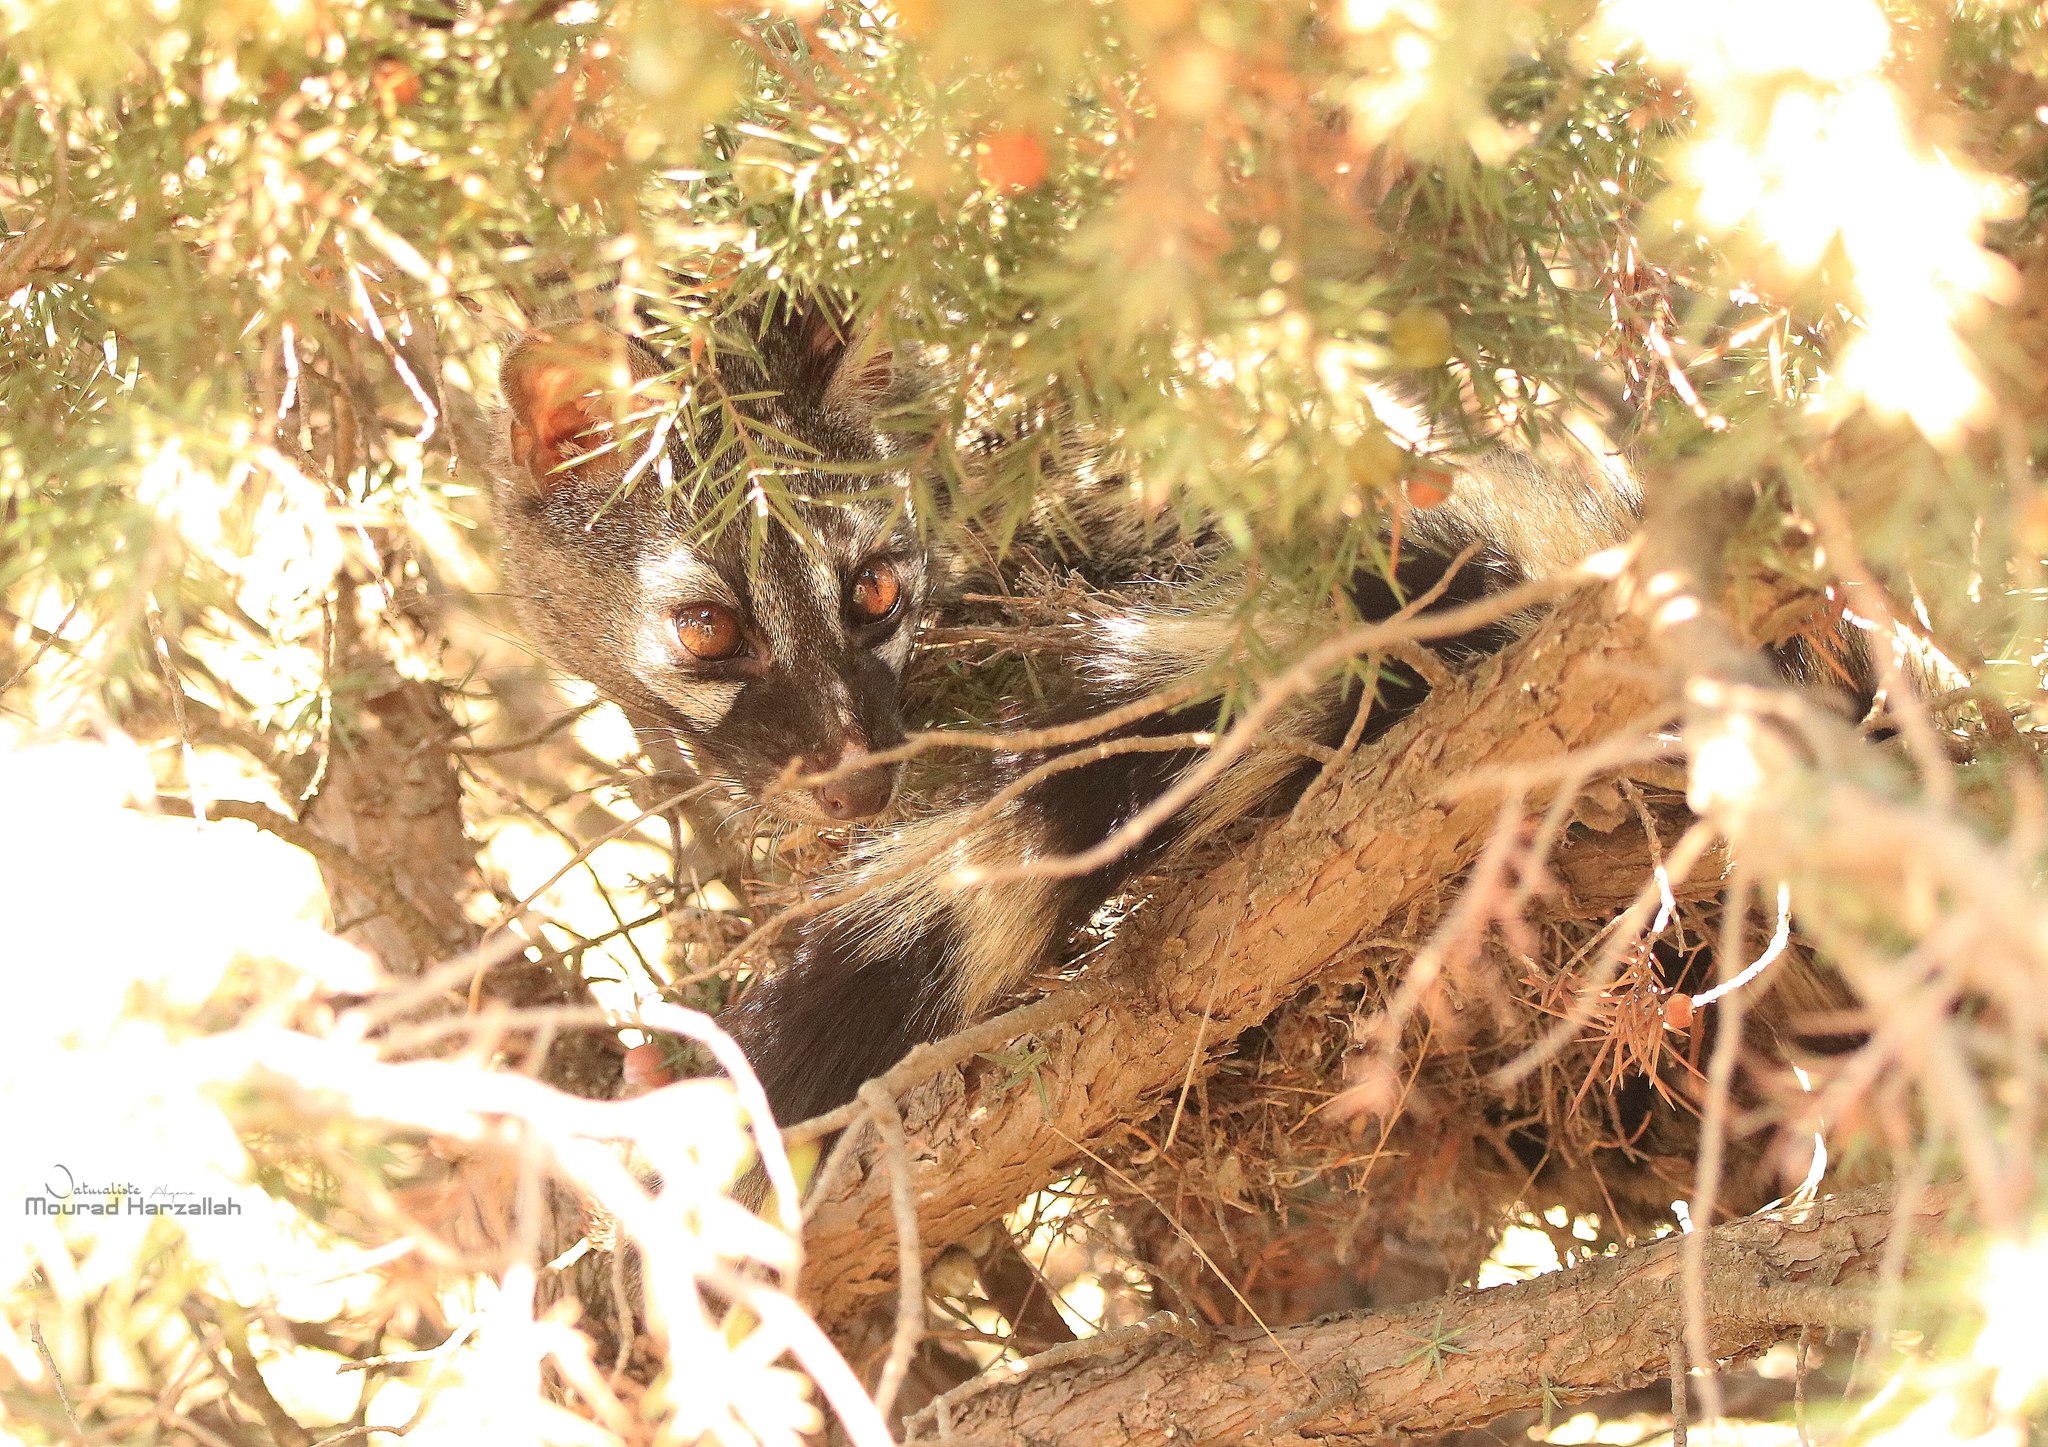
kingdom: Animalia
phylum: Chordata
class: Mammalia
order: Carnivora
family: Viverridae
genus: Genetta
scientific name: Genetta genetta
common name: Common genet
